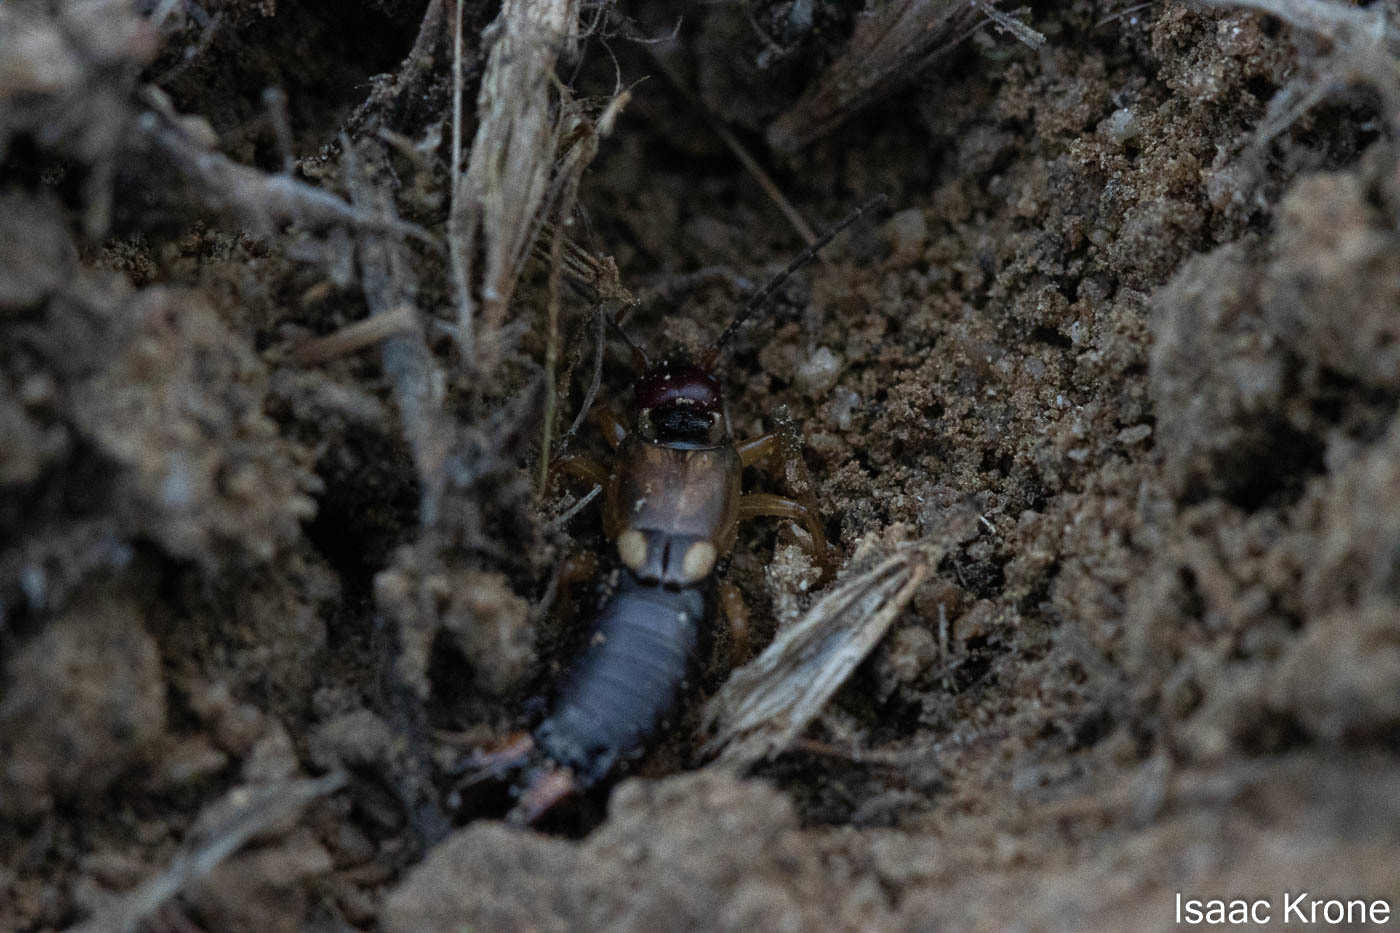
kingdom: Animalia
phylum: Arthropoda
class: Insecta
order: Dermaptera
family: Forficulidae
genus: Forficula
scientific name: Forficula
